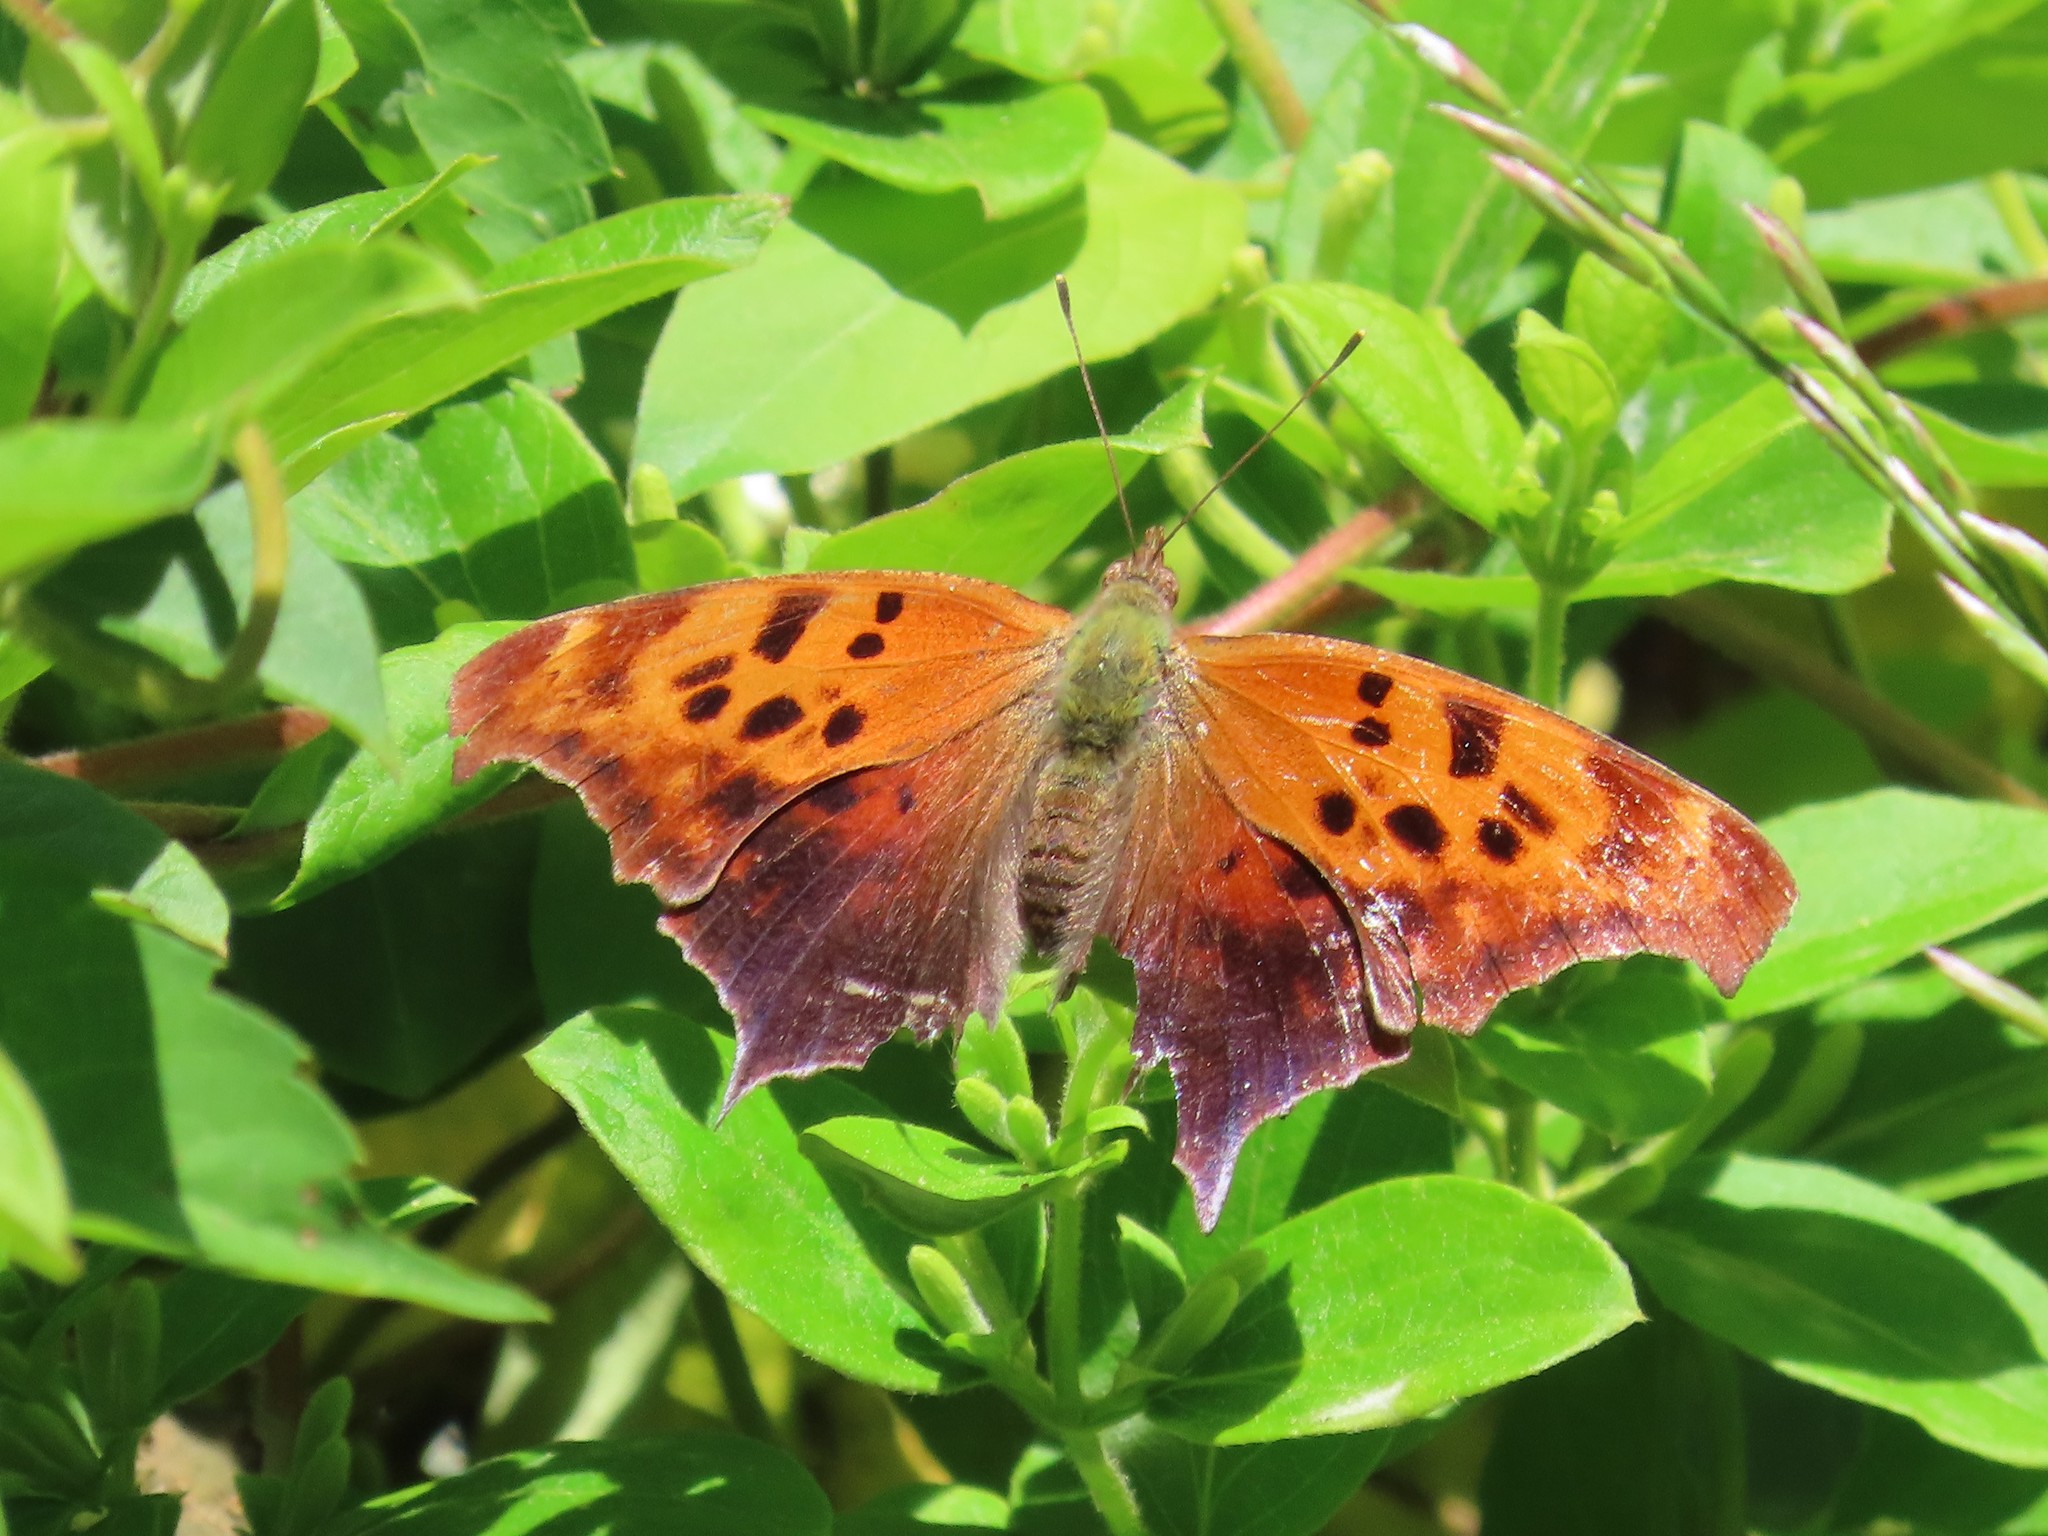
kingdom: Animalia
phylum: Arthropoda
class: Insecta
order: Lepidoptera
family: Nymphalidae
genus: Polygonia
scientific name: Polygonia interrogationis
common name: Question mark
